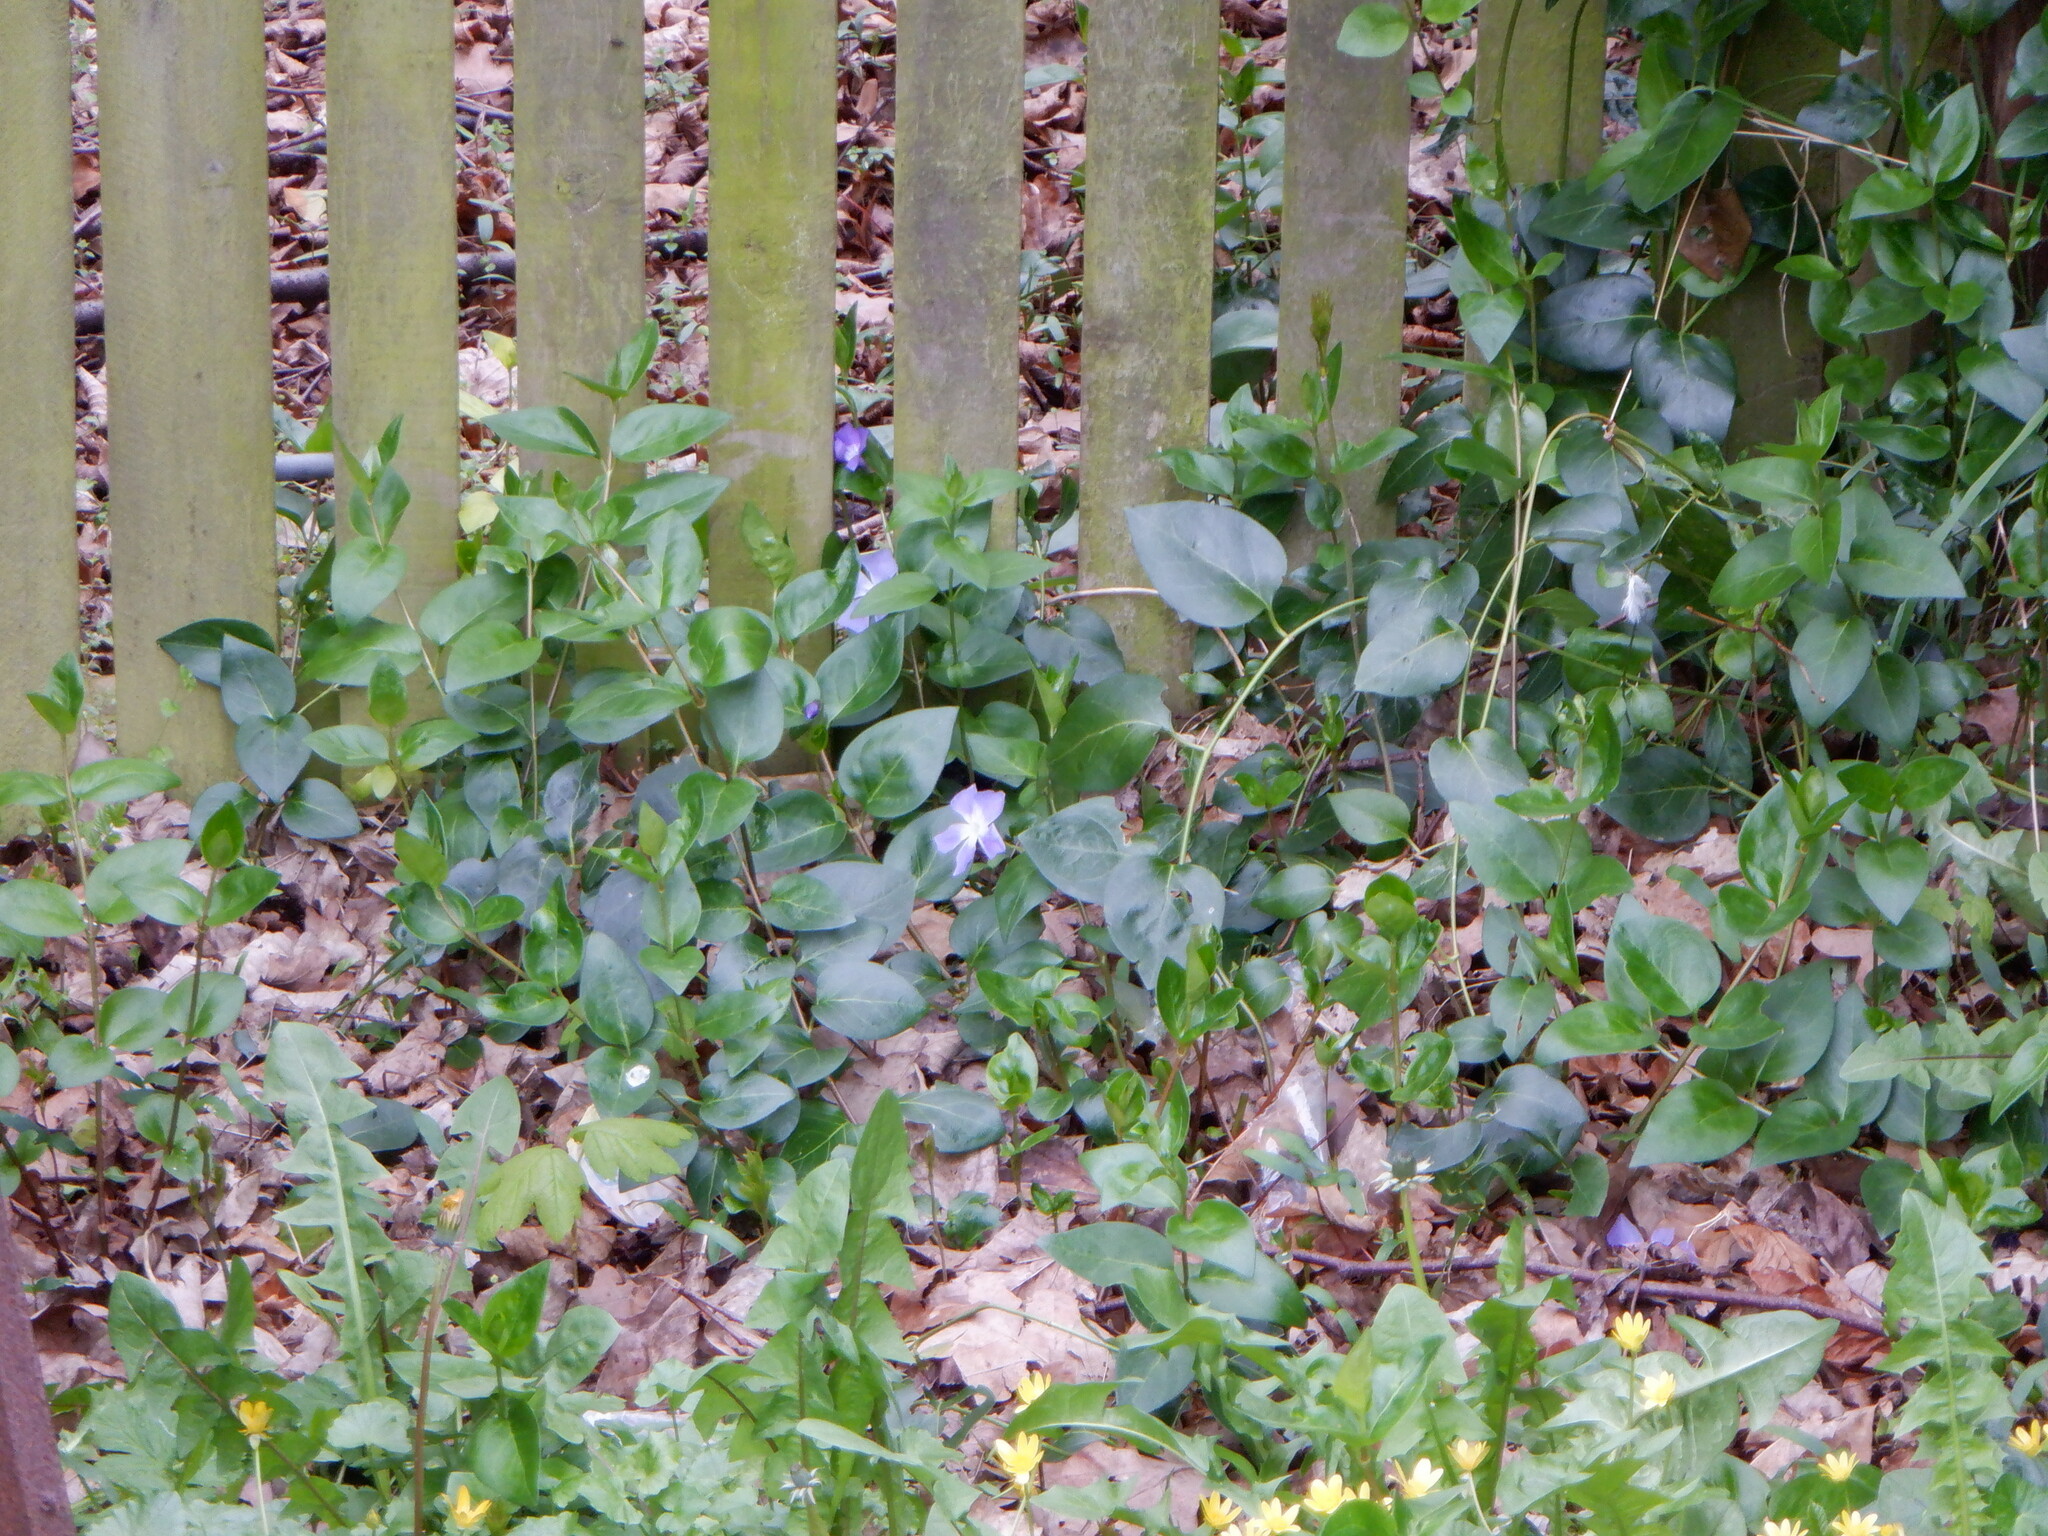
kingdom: Plantae
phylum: Tracheophyta
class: Magnoliopsida
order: Gentianales
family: Apocynaceae
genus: Vinca
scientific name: Vinca major
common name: Greater periwinkle
